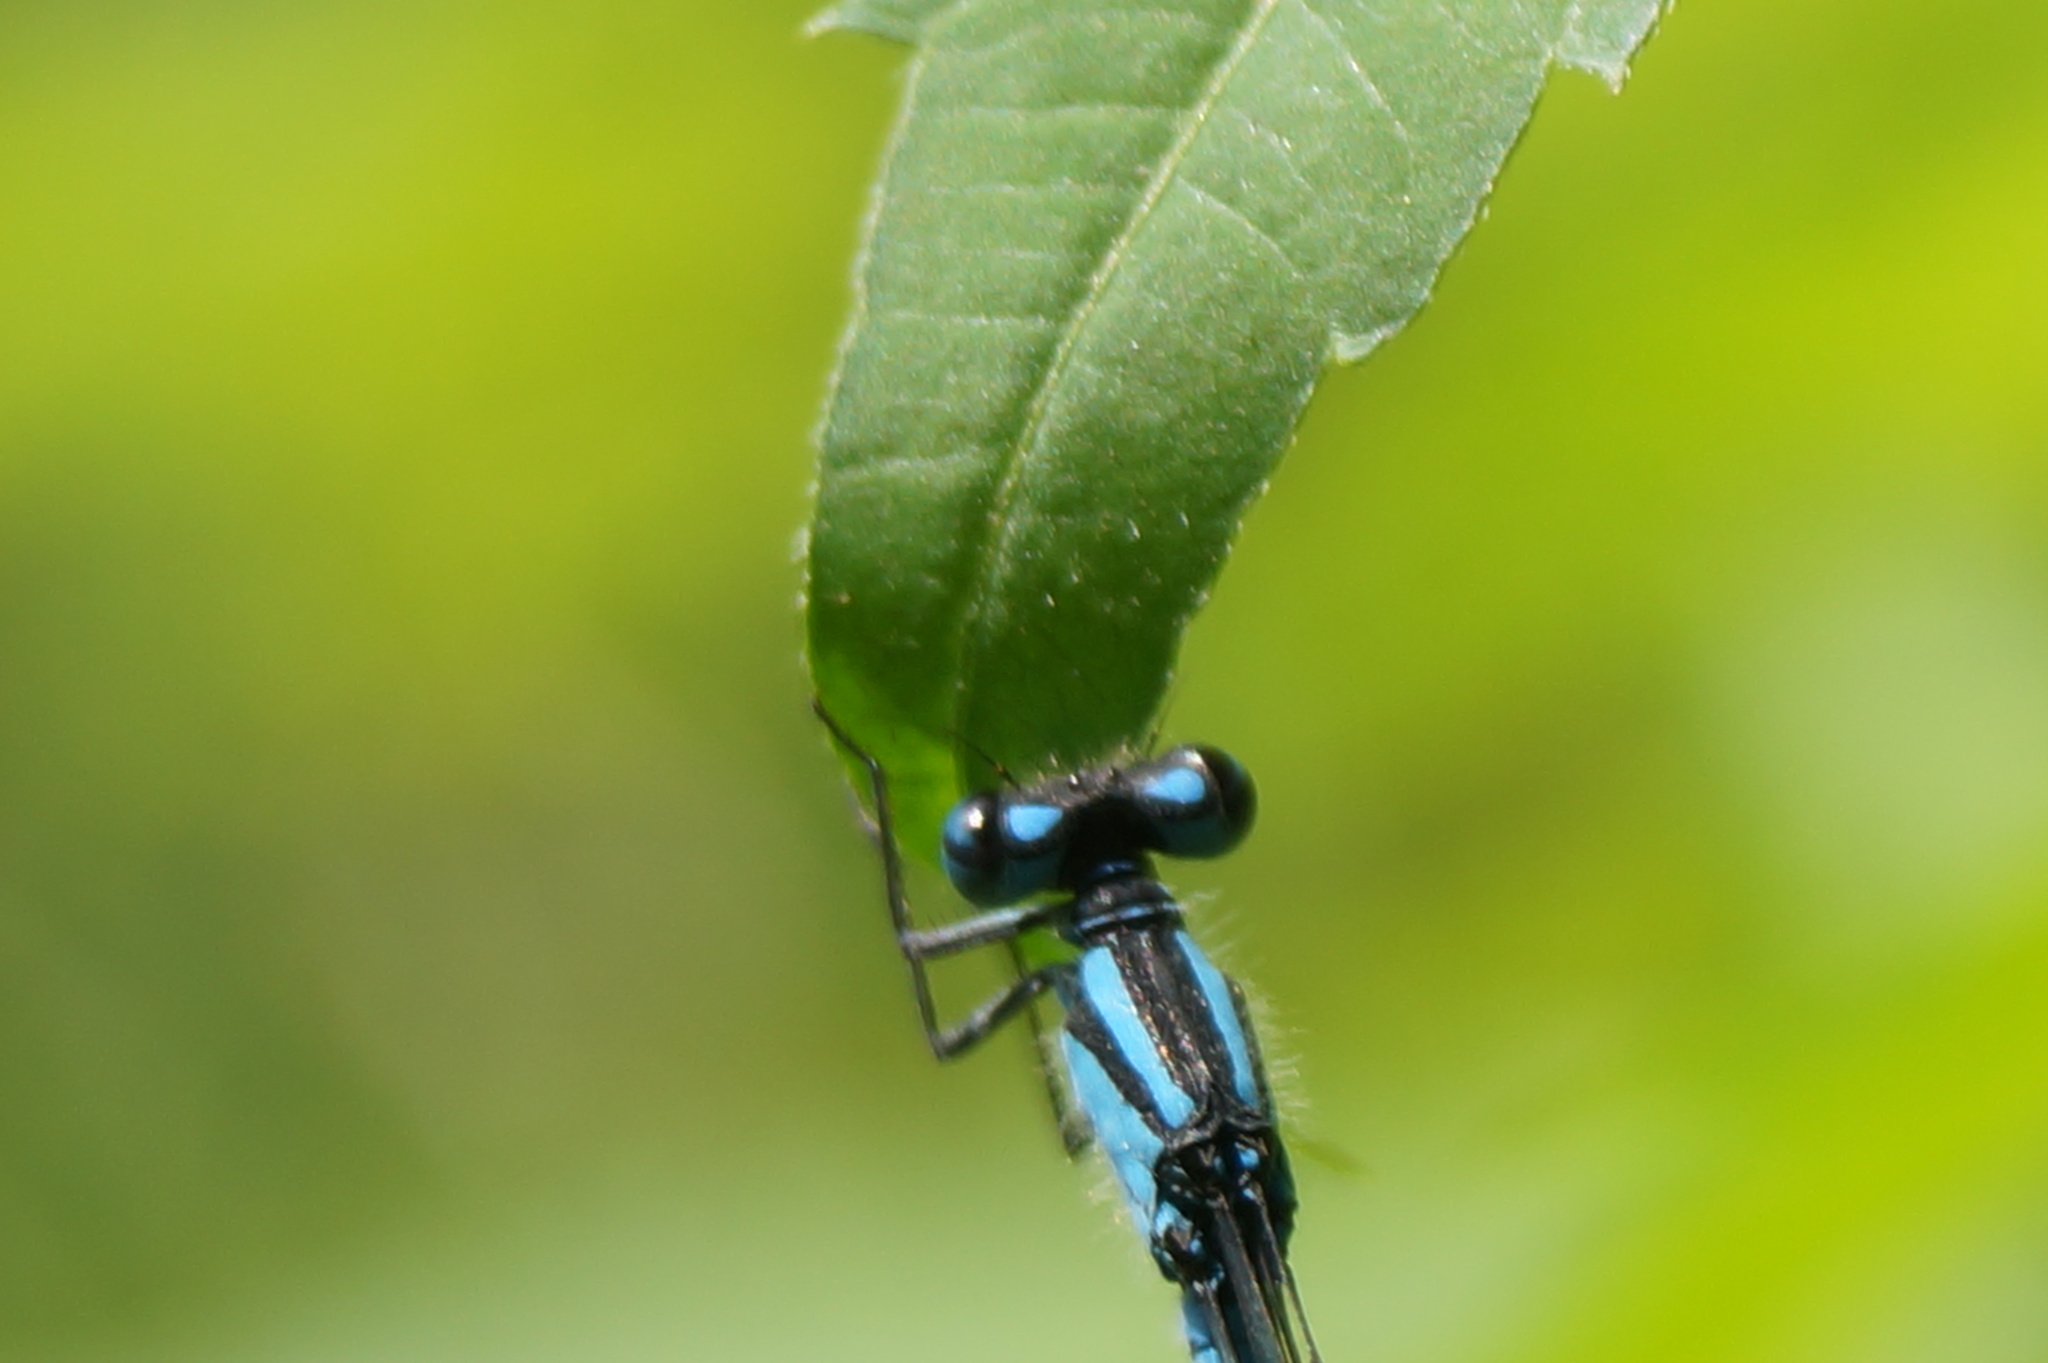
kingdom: Animalia
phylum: Arthropoda
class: Insecta
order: Odonata
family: Coenagrionidae
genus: Enallagma
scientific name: Enallagma cyathigerum
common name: Common blue damselfly
